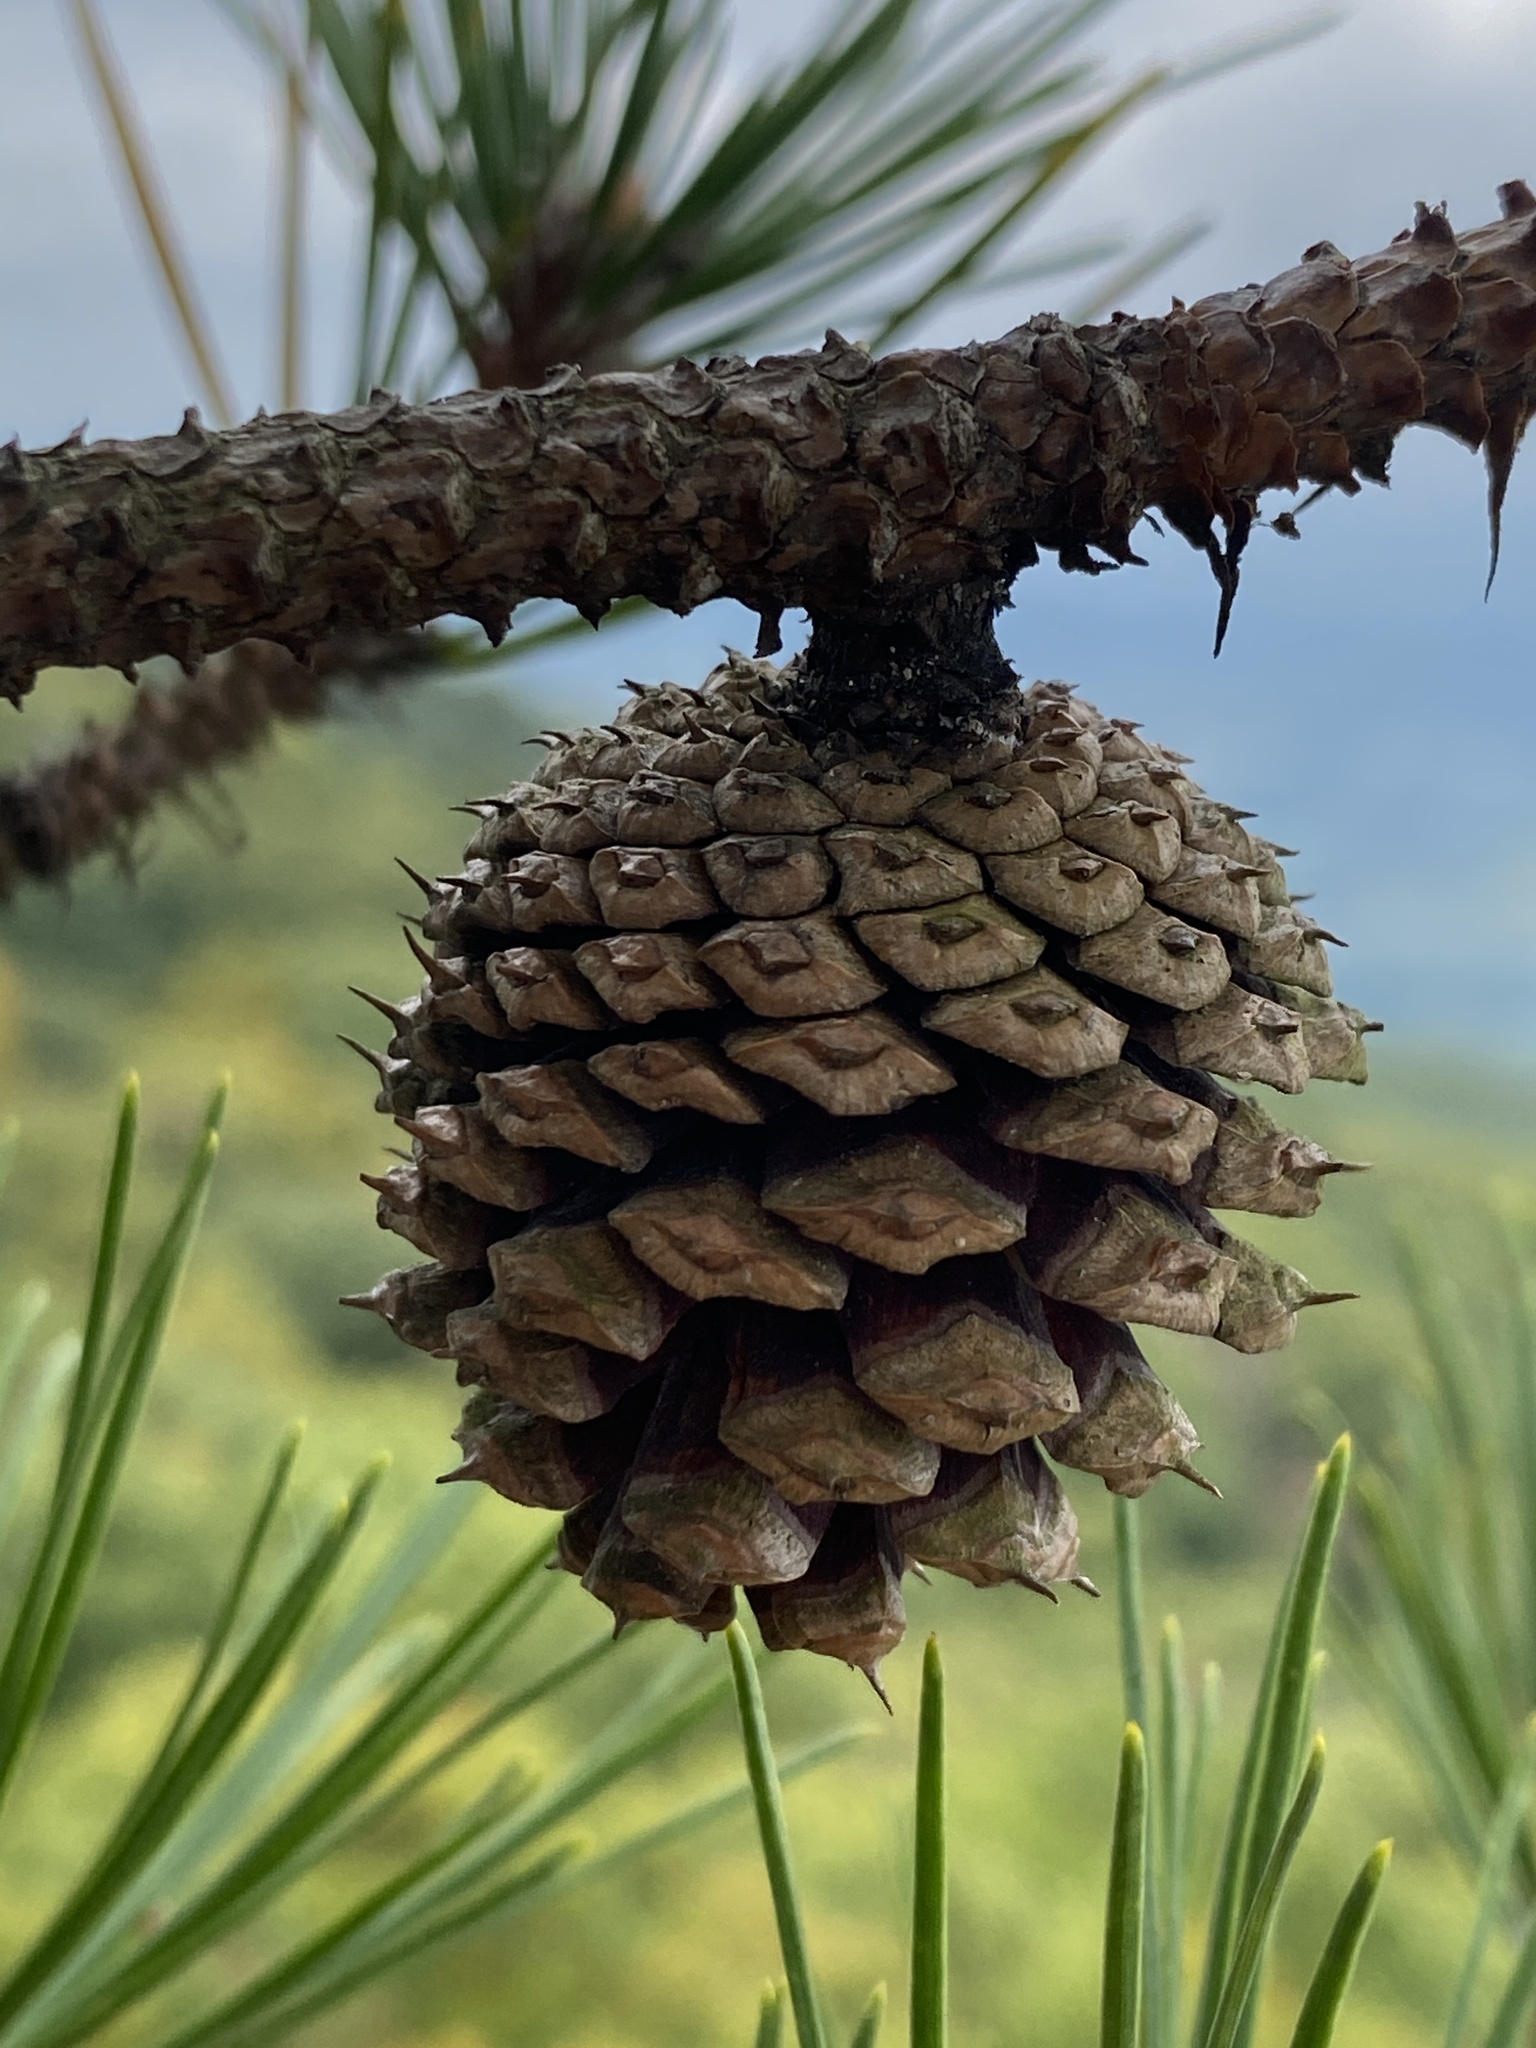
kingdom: Plantae
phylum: Tracheophyta
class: Pinopsida
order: Pinales
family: Pinaceae
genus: Pinus
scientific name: Pinus rigida
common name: Pitch pine
